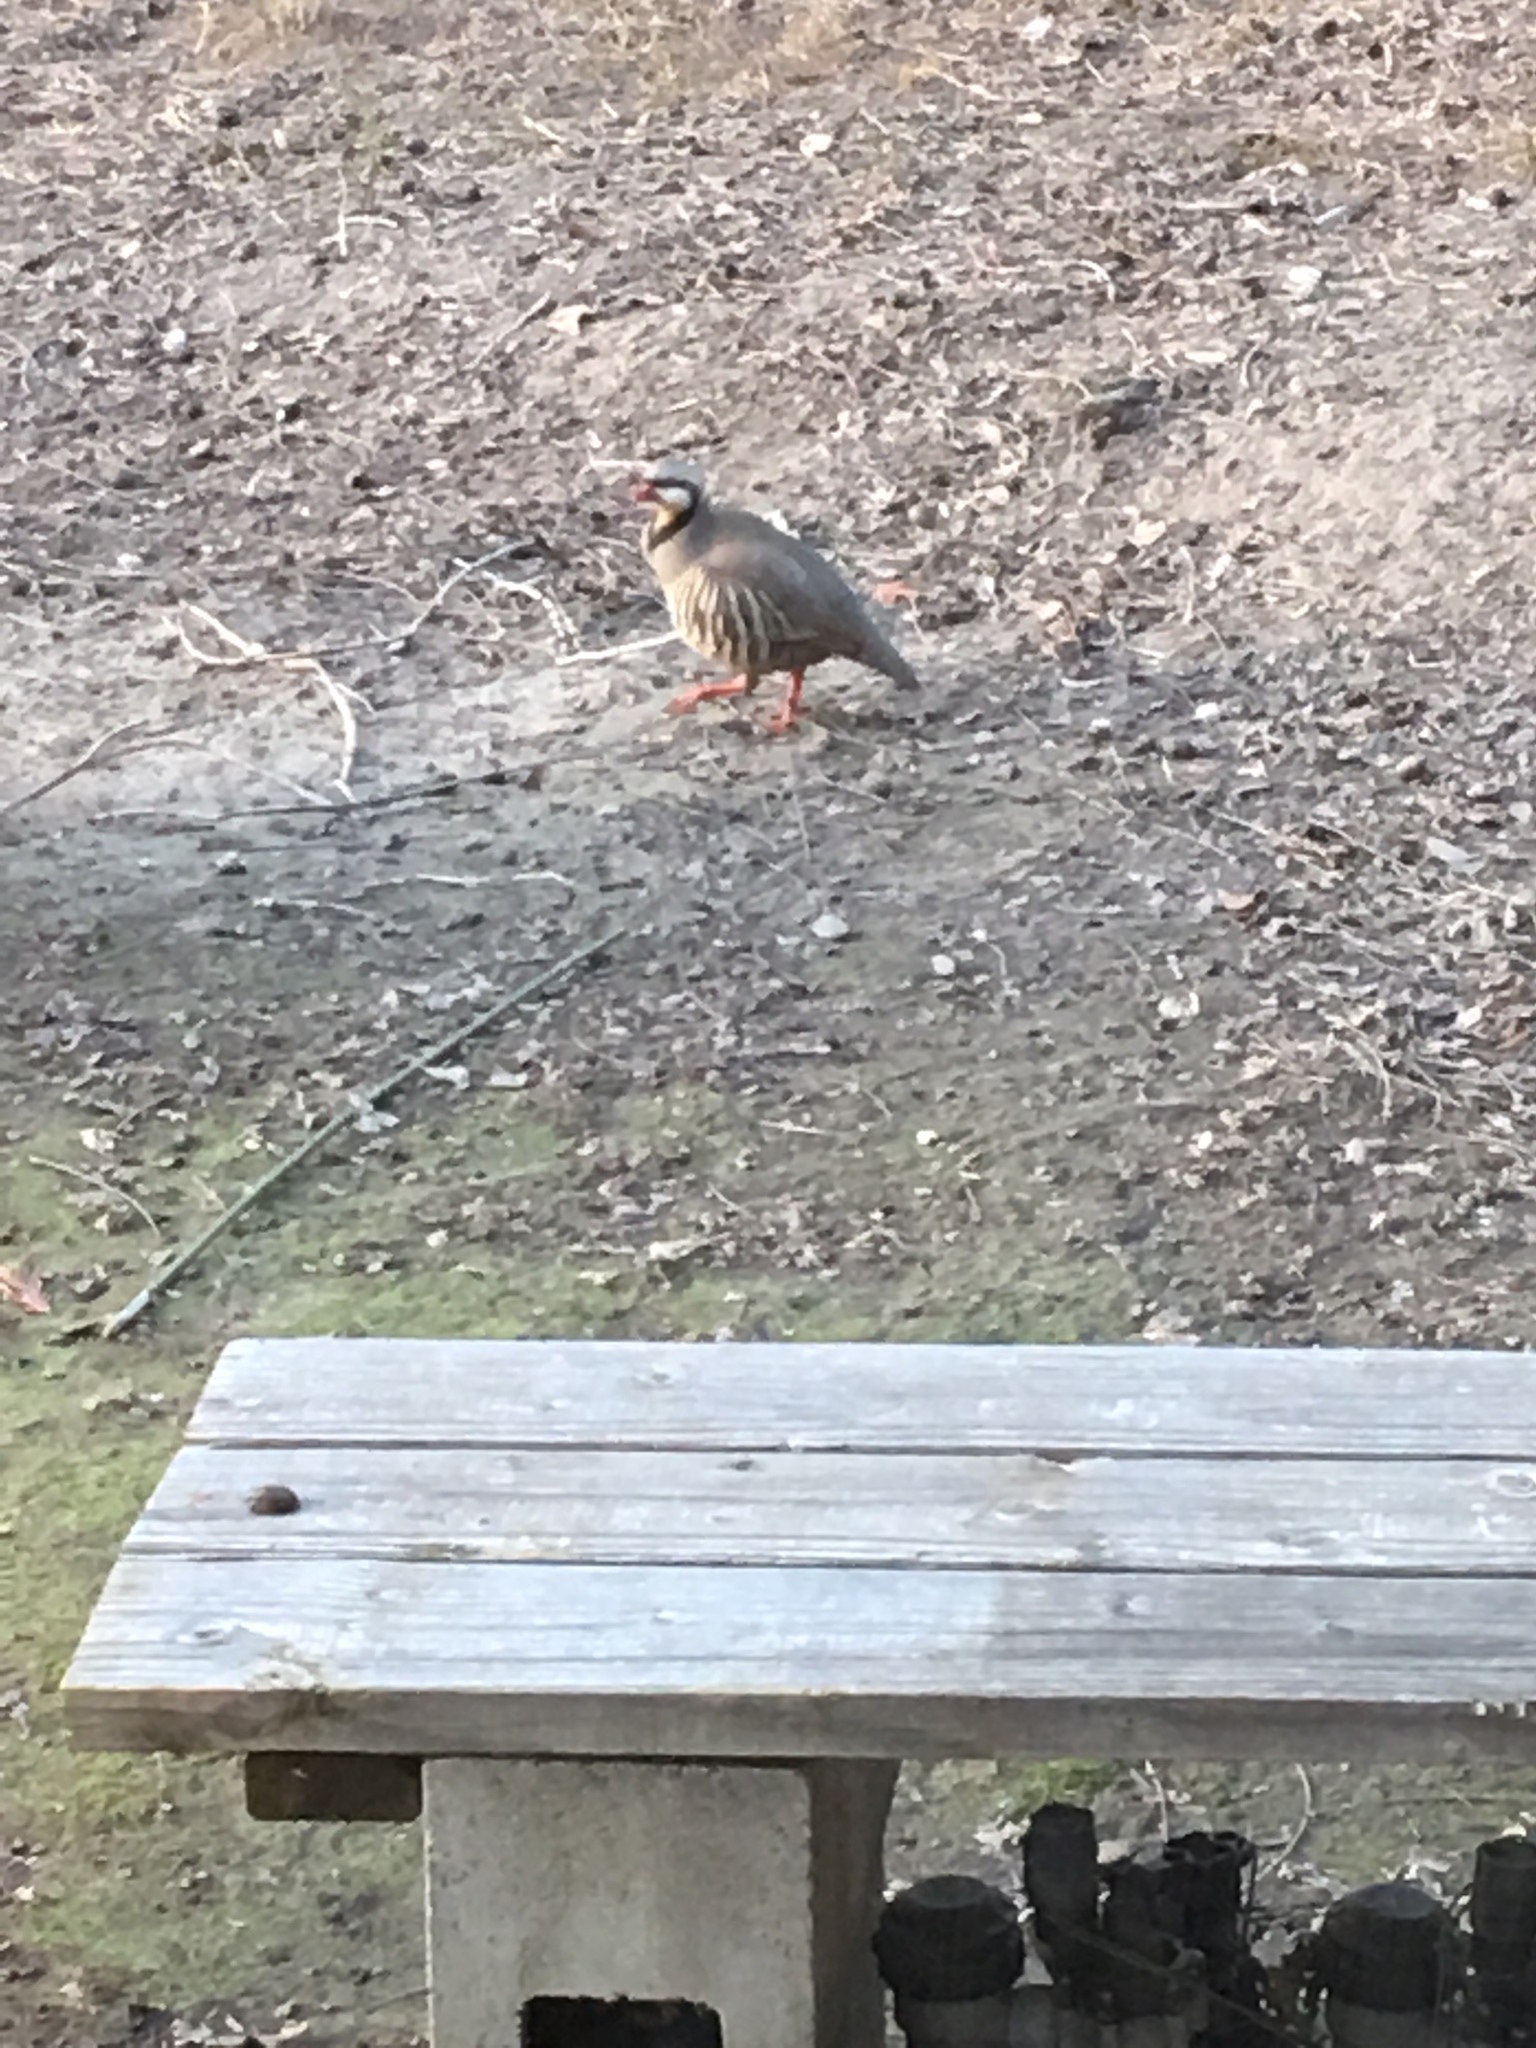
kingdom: Animalia
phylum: Chordata
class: Aves
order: Galliformes
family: Phasianidae
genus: Alectoris
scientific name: Alectoris chukar
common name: Chukar
